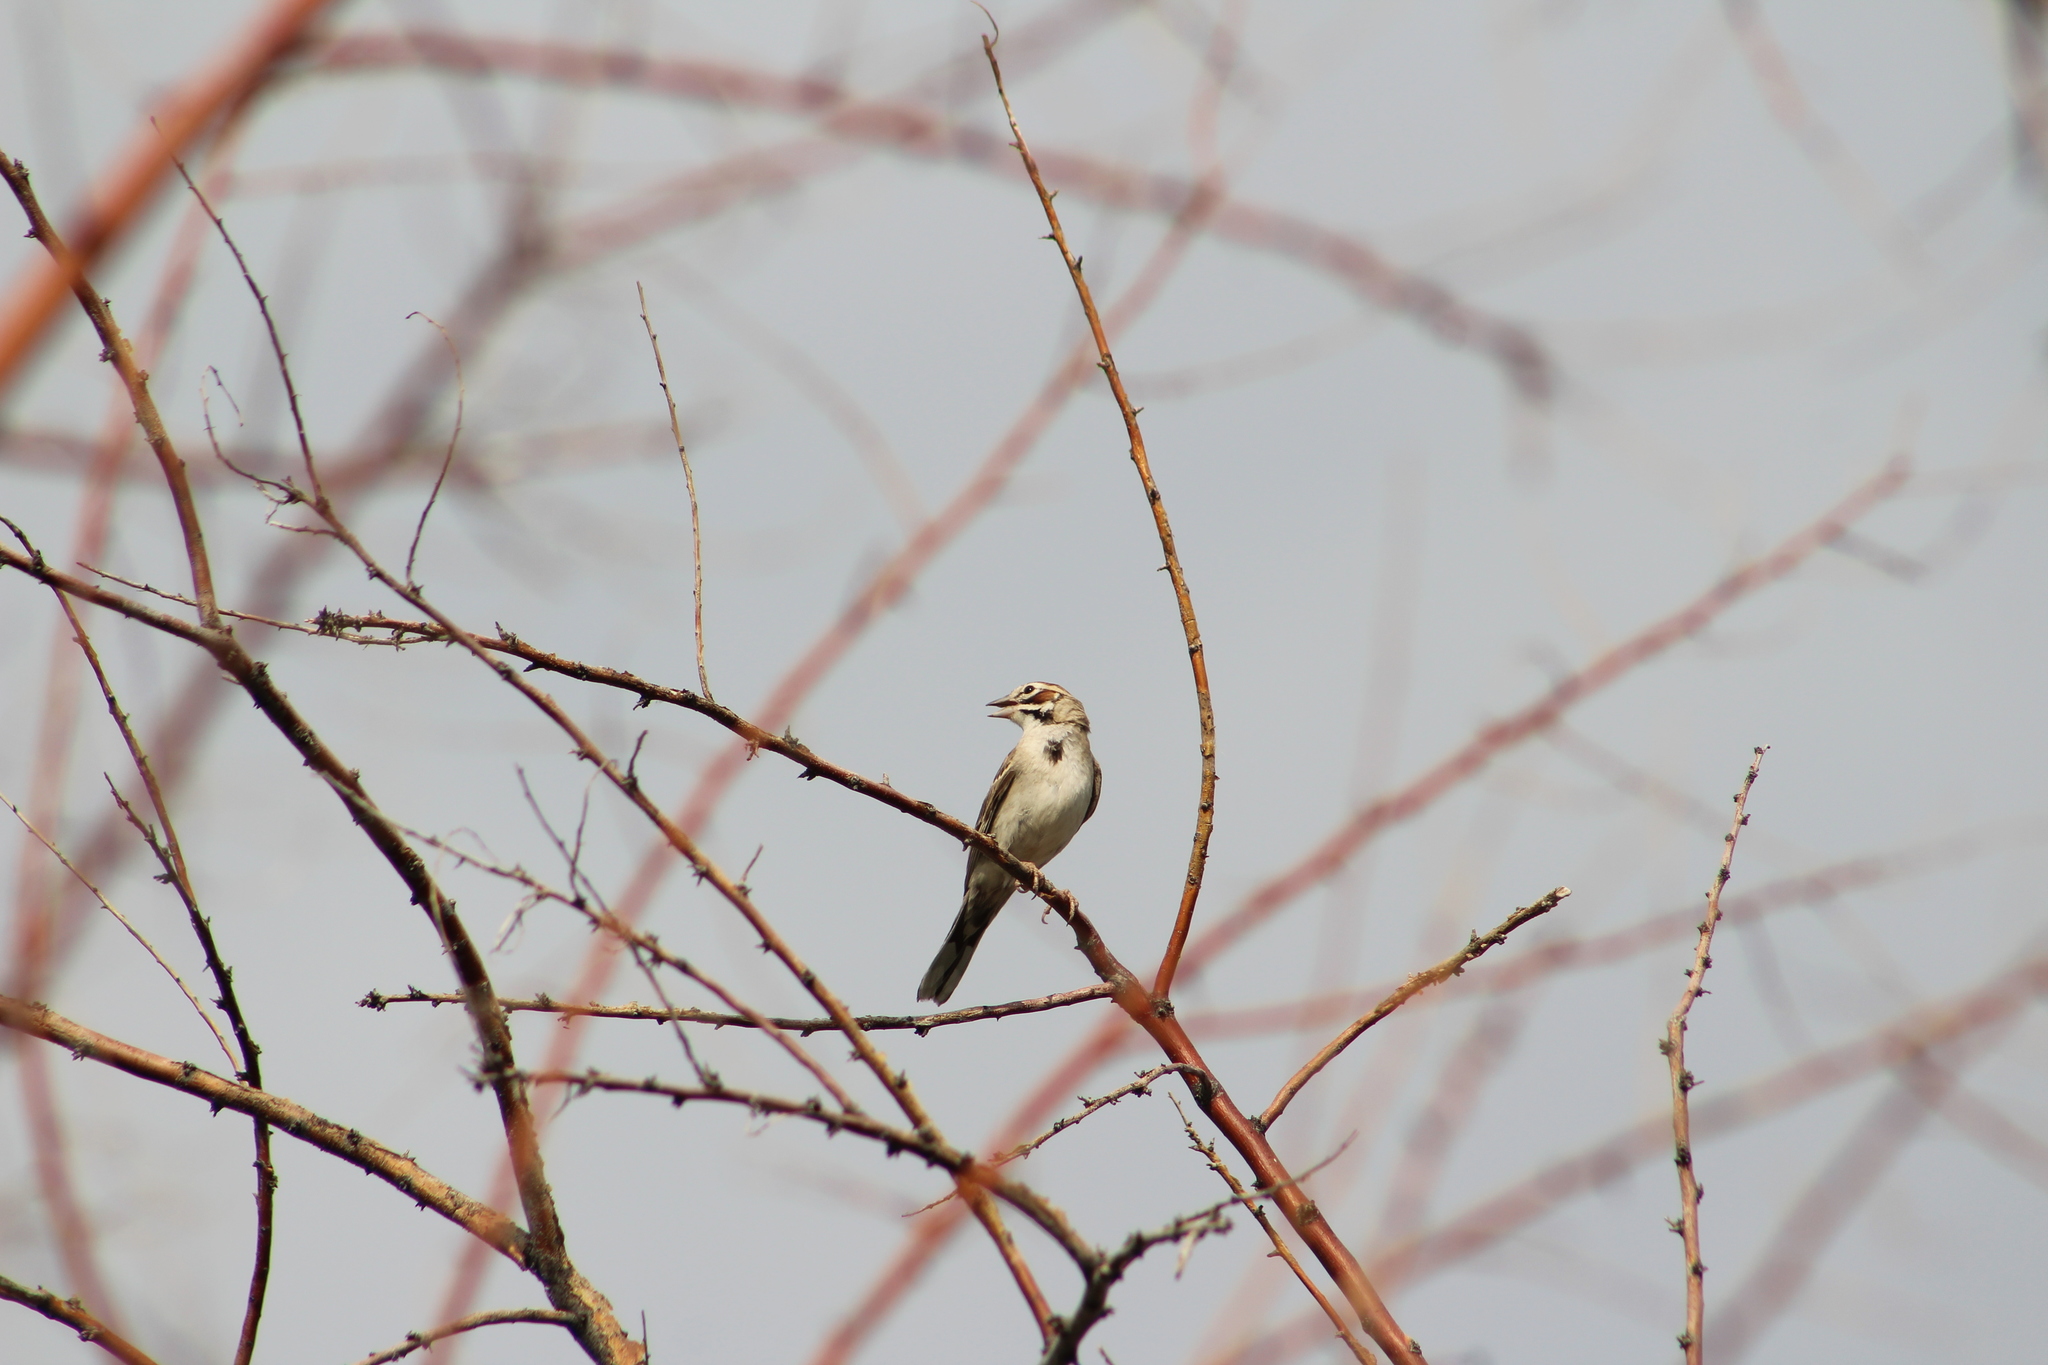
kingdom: Animalia
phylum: Chordata
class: Aves
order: Passeriformes
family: Passerellidae
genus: Chondestes
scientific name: Chondestes grammacus
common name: Lark sparrow
